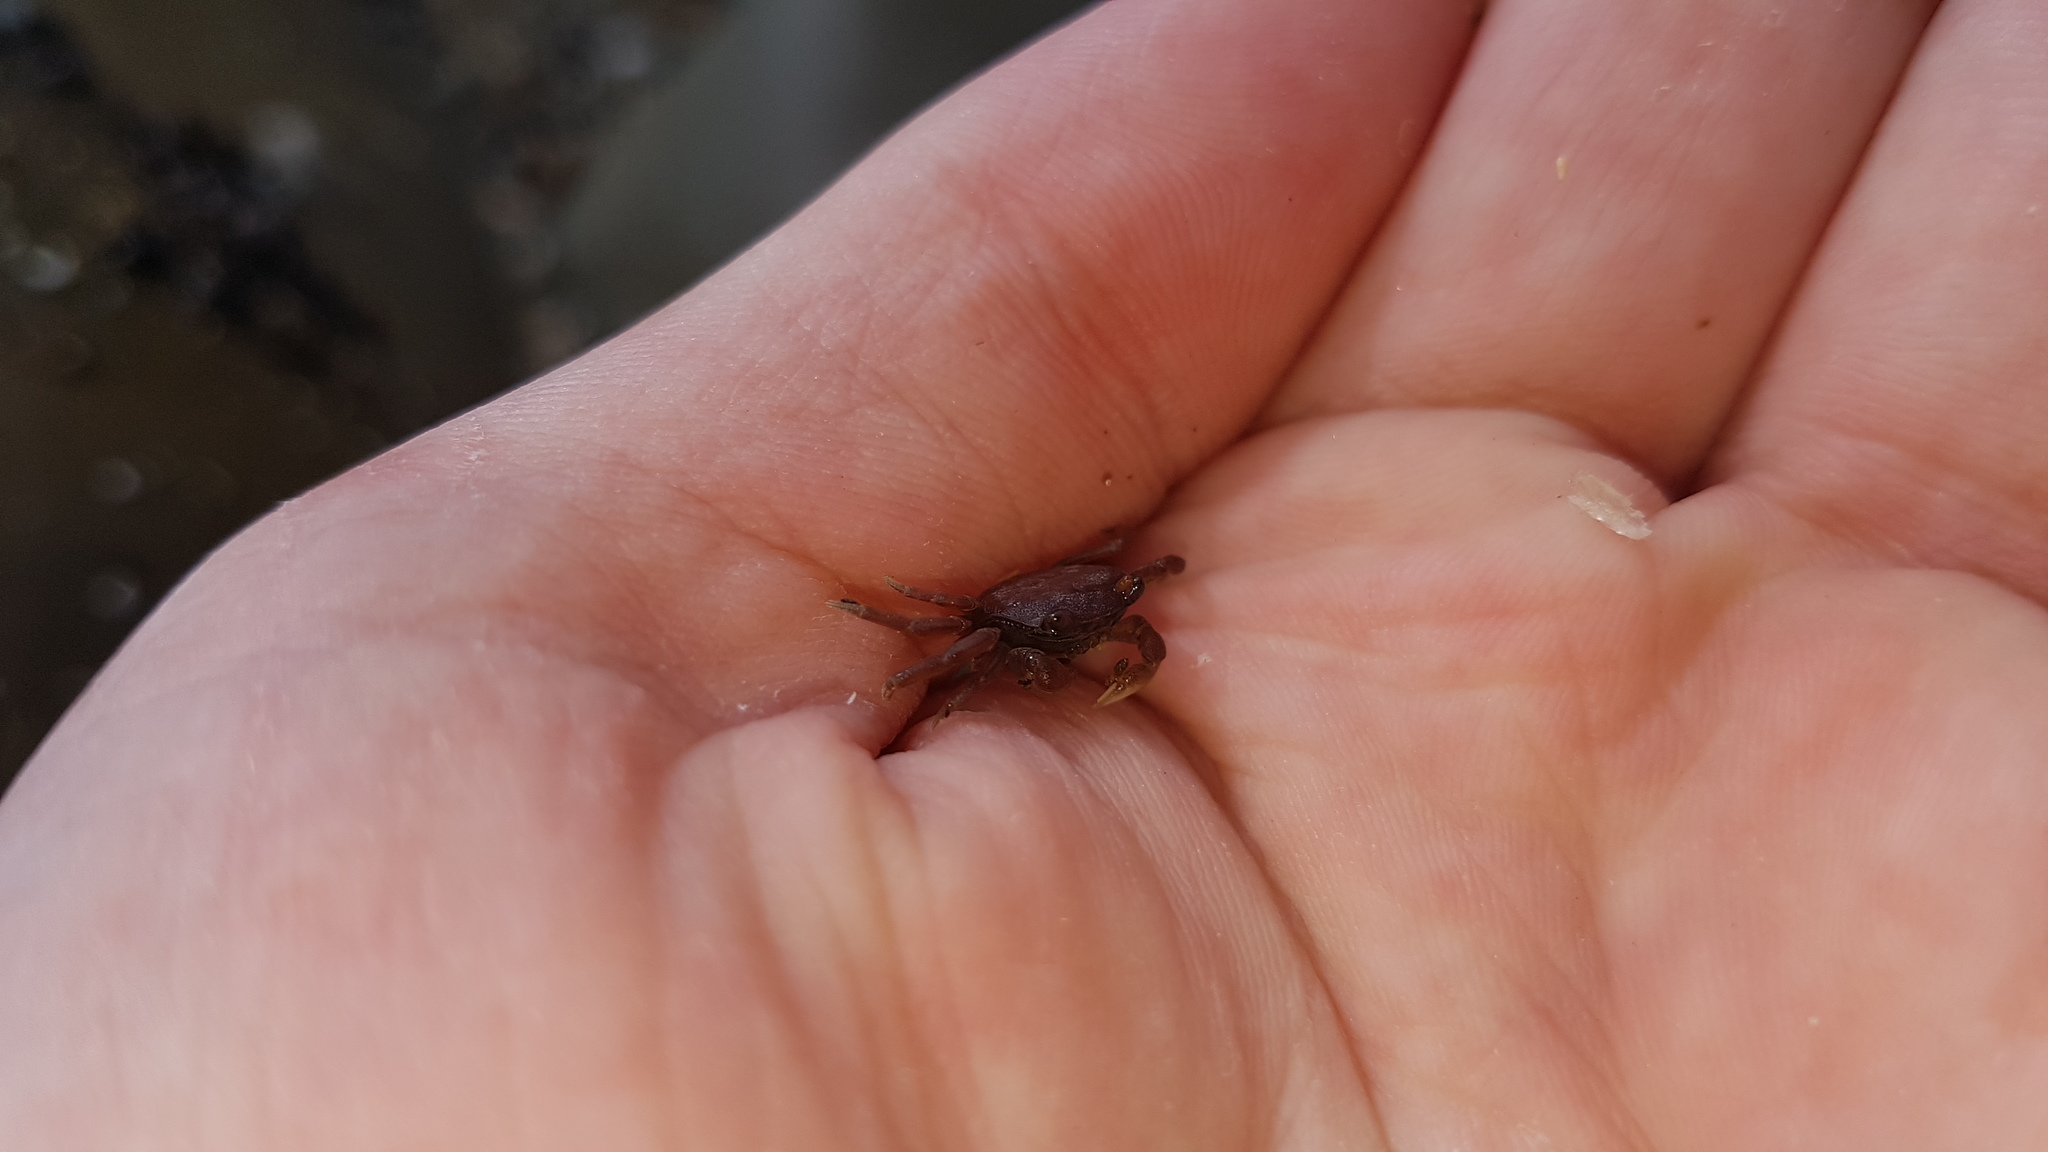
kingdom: Animalia
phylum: Arthropoda
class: Malacostraca
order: Decapoda
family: Varunidae
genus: Cyclograpsus
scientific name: Cyclograpsus lavauxi
